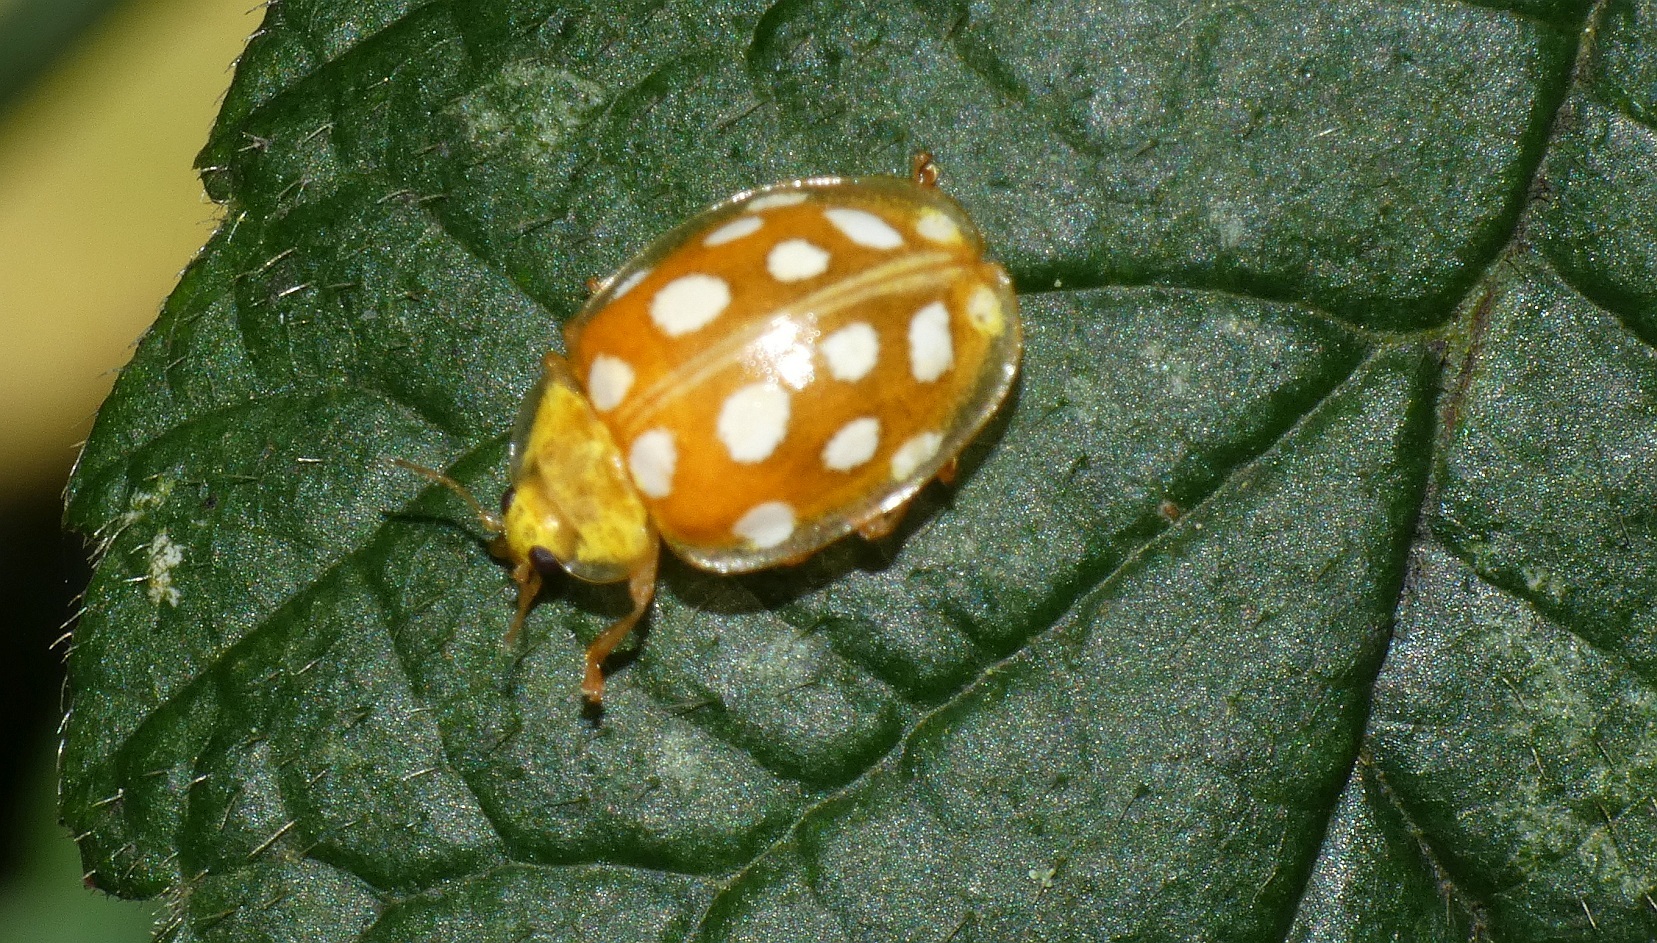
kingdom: Animalia
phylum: Arthropoda
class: Insecta
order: Coleoptera
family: Coccinellidae
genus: Halyzia
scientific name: Halyzia sedecimguttata
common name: Orange ladybird
